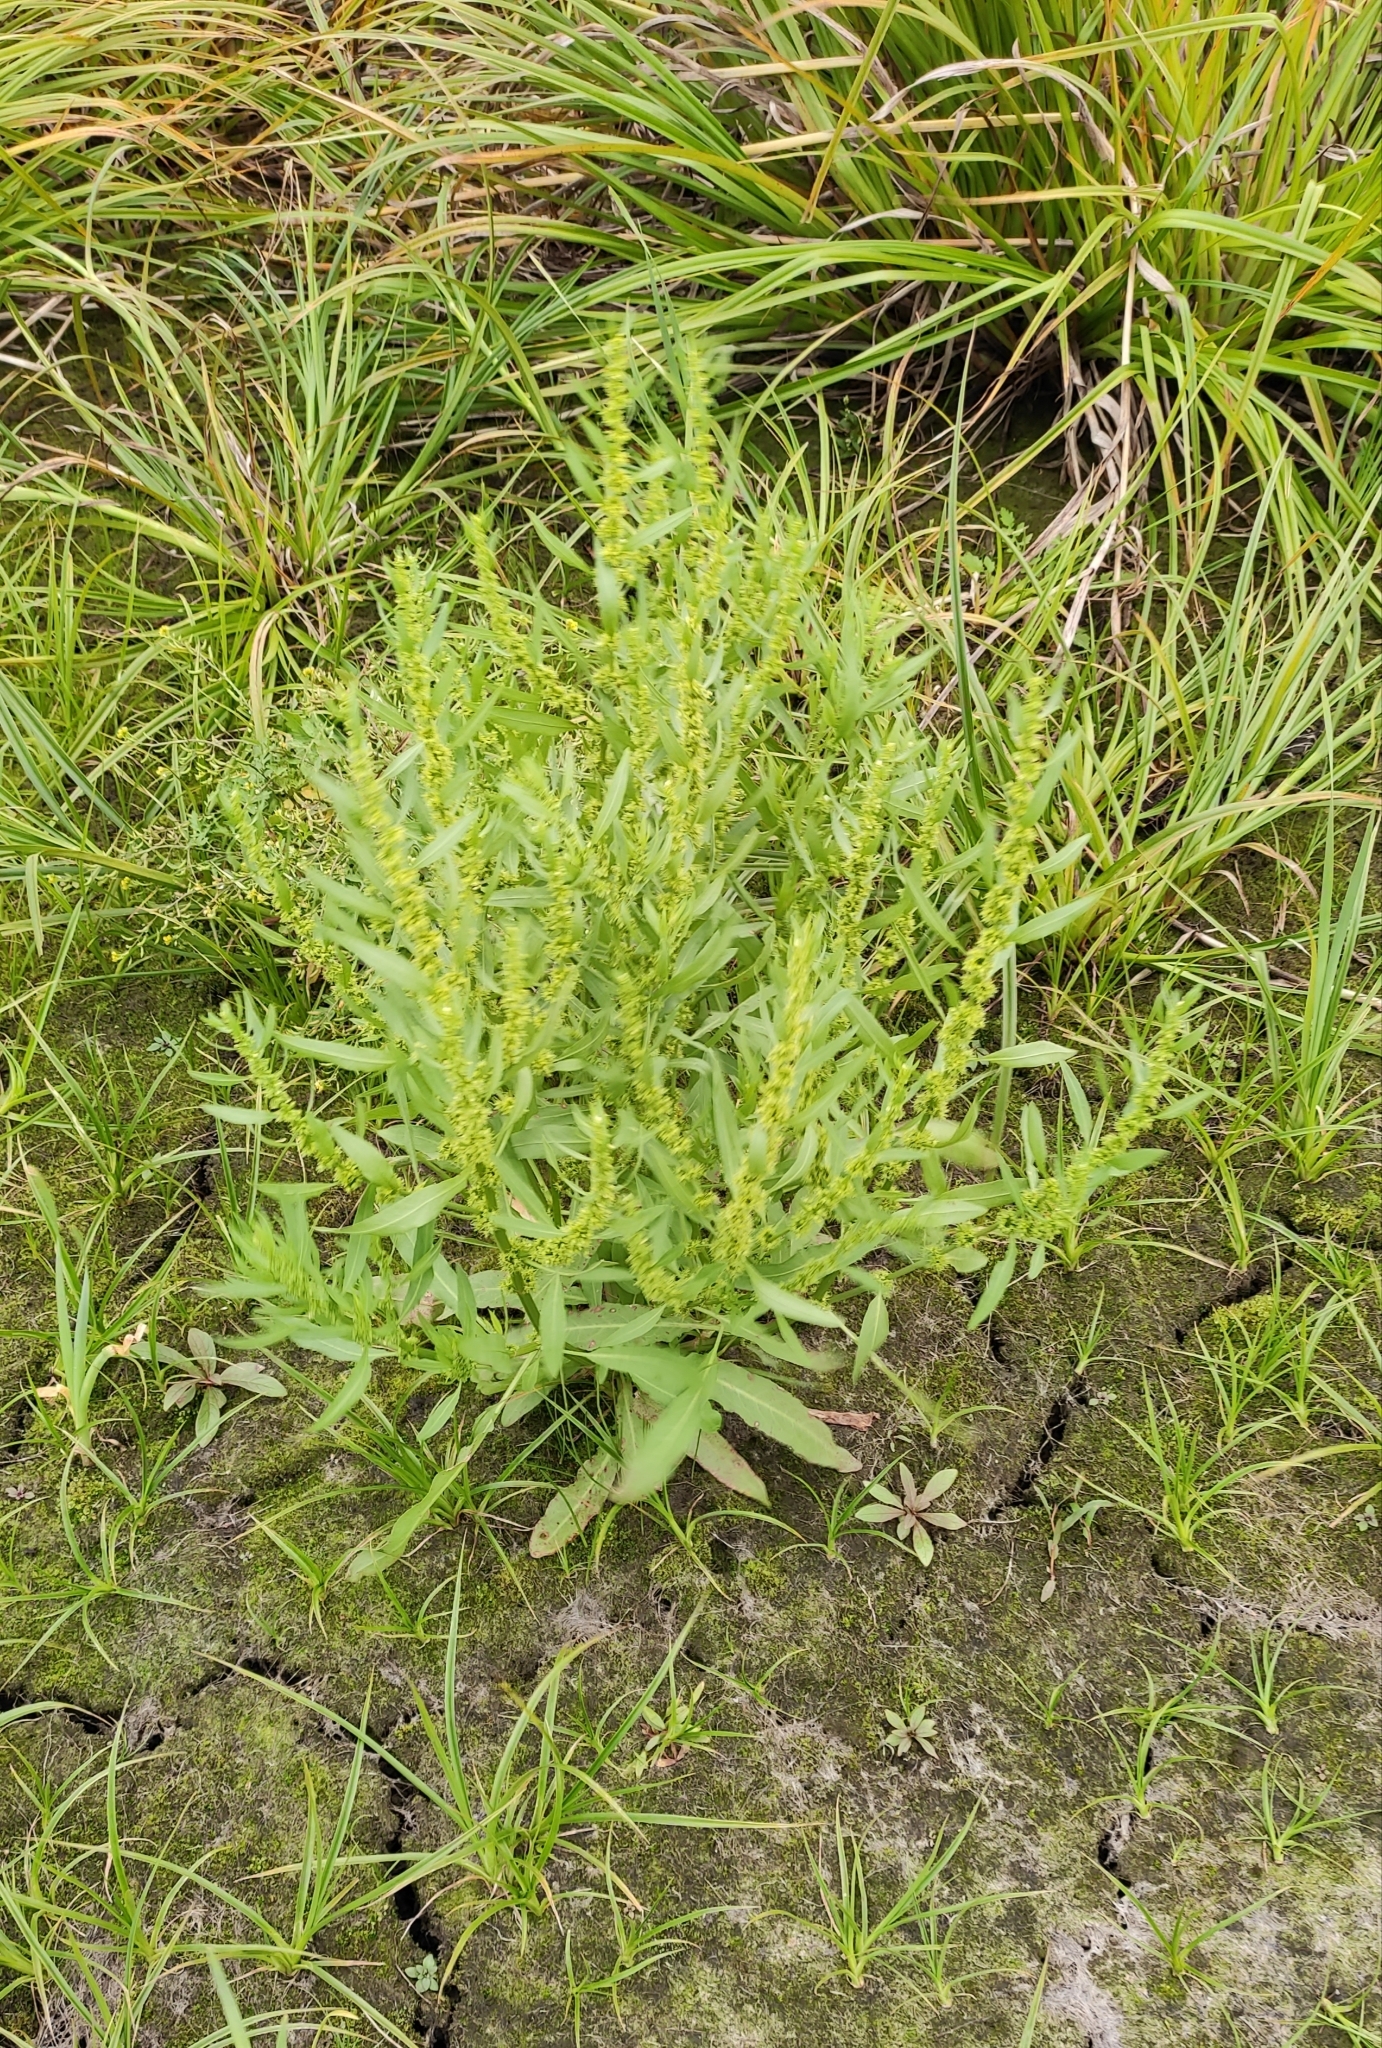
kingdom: Plantae
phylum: Tracheophyta
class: Magnoliopsida
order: Caryophyllales
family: Polygonaceae
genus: Rumex
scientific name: Rumex maritimus
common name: Golden dock
